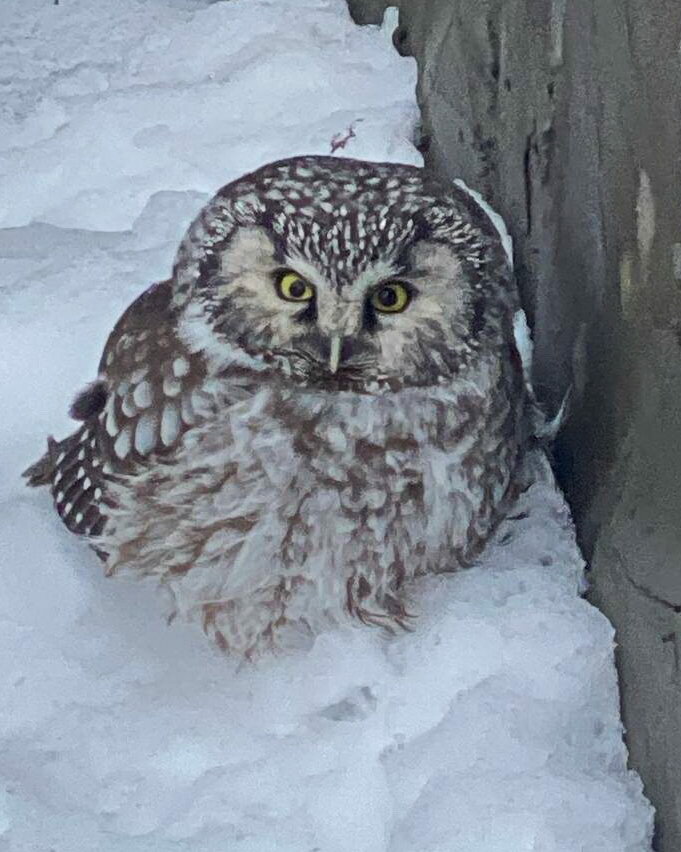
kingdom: Animalia
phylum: Chordata
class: Aves
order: Strigiformes
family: Strigidae
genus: Aegolius
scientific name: Aegolius funereus
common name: Boreal owl
